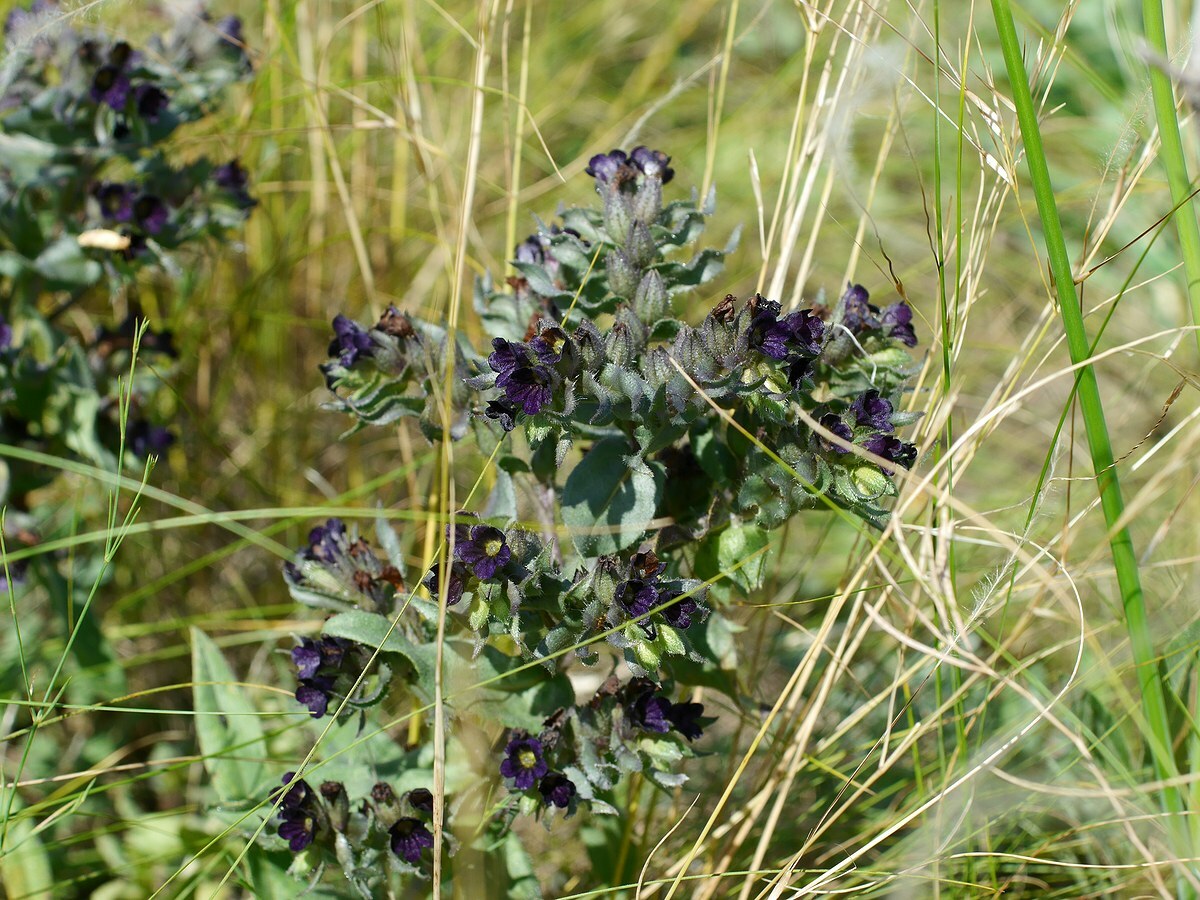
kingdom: Plantae
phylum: Tracheophyta
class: Magnoliopsida
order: Boraginales
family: Boraginaceae
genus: Nonea
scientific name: Nonea pulla
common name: Brown nonea
